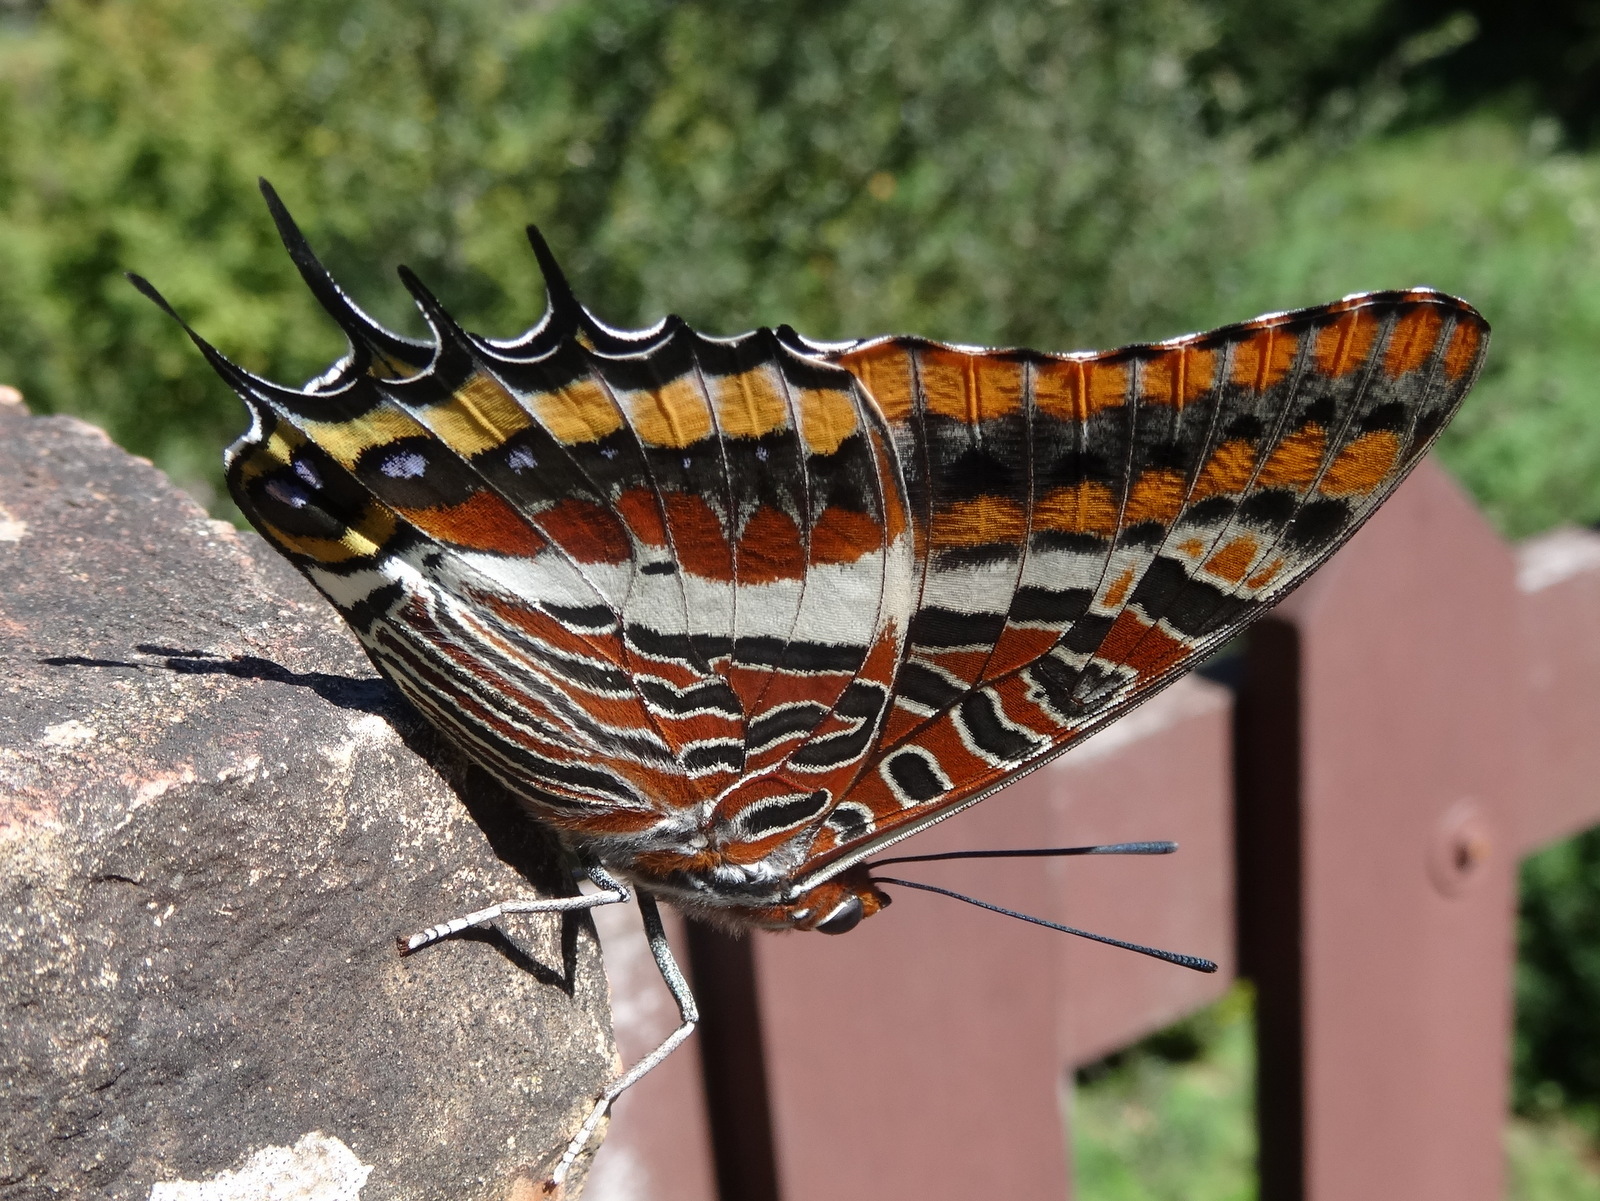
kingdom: Animalia
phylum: Arthropoda
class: Insecta
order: Lepidoptera
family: Nymphalidae
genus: Charaxes
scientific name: Charaxes jasius
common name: Two tailed pasha
